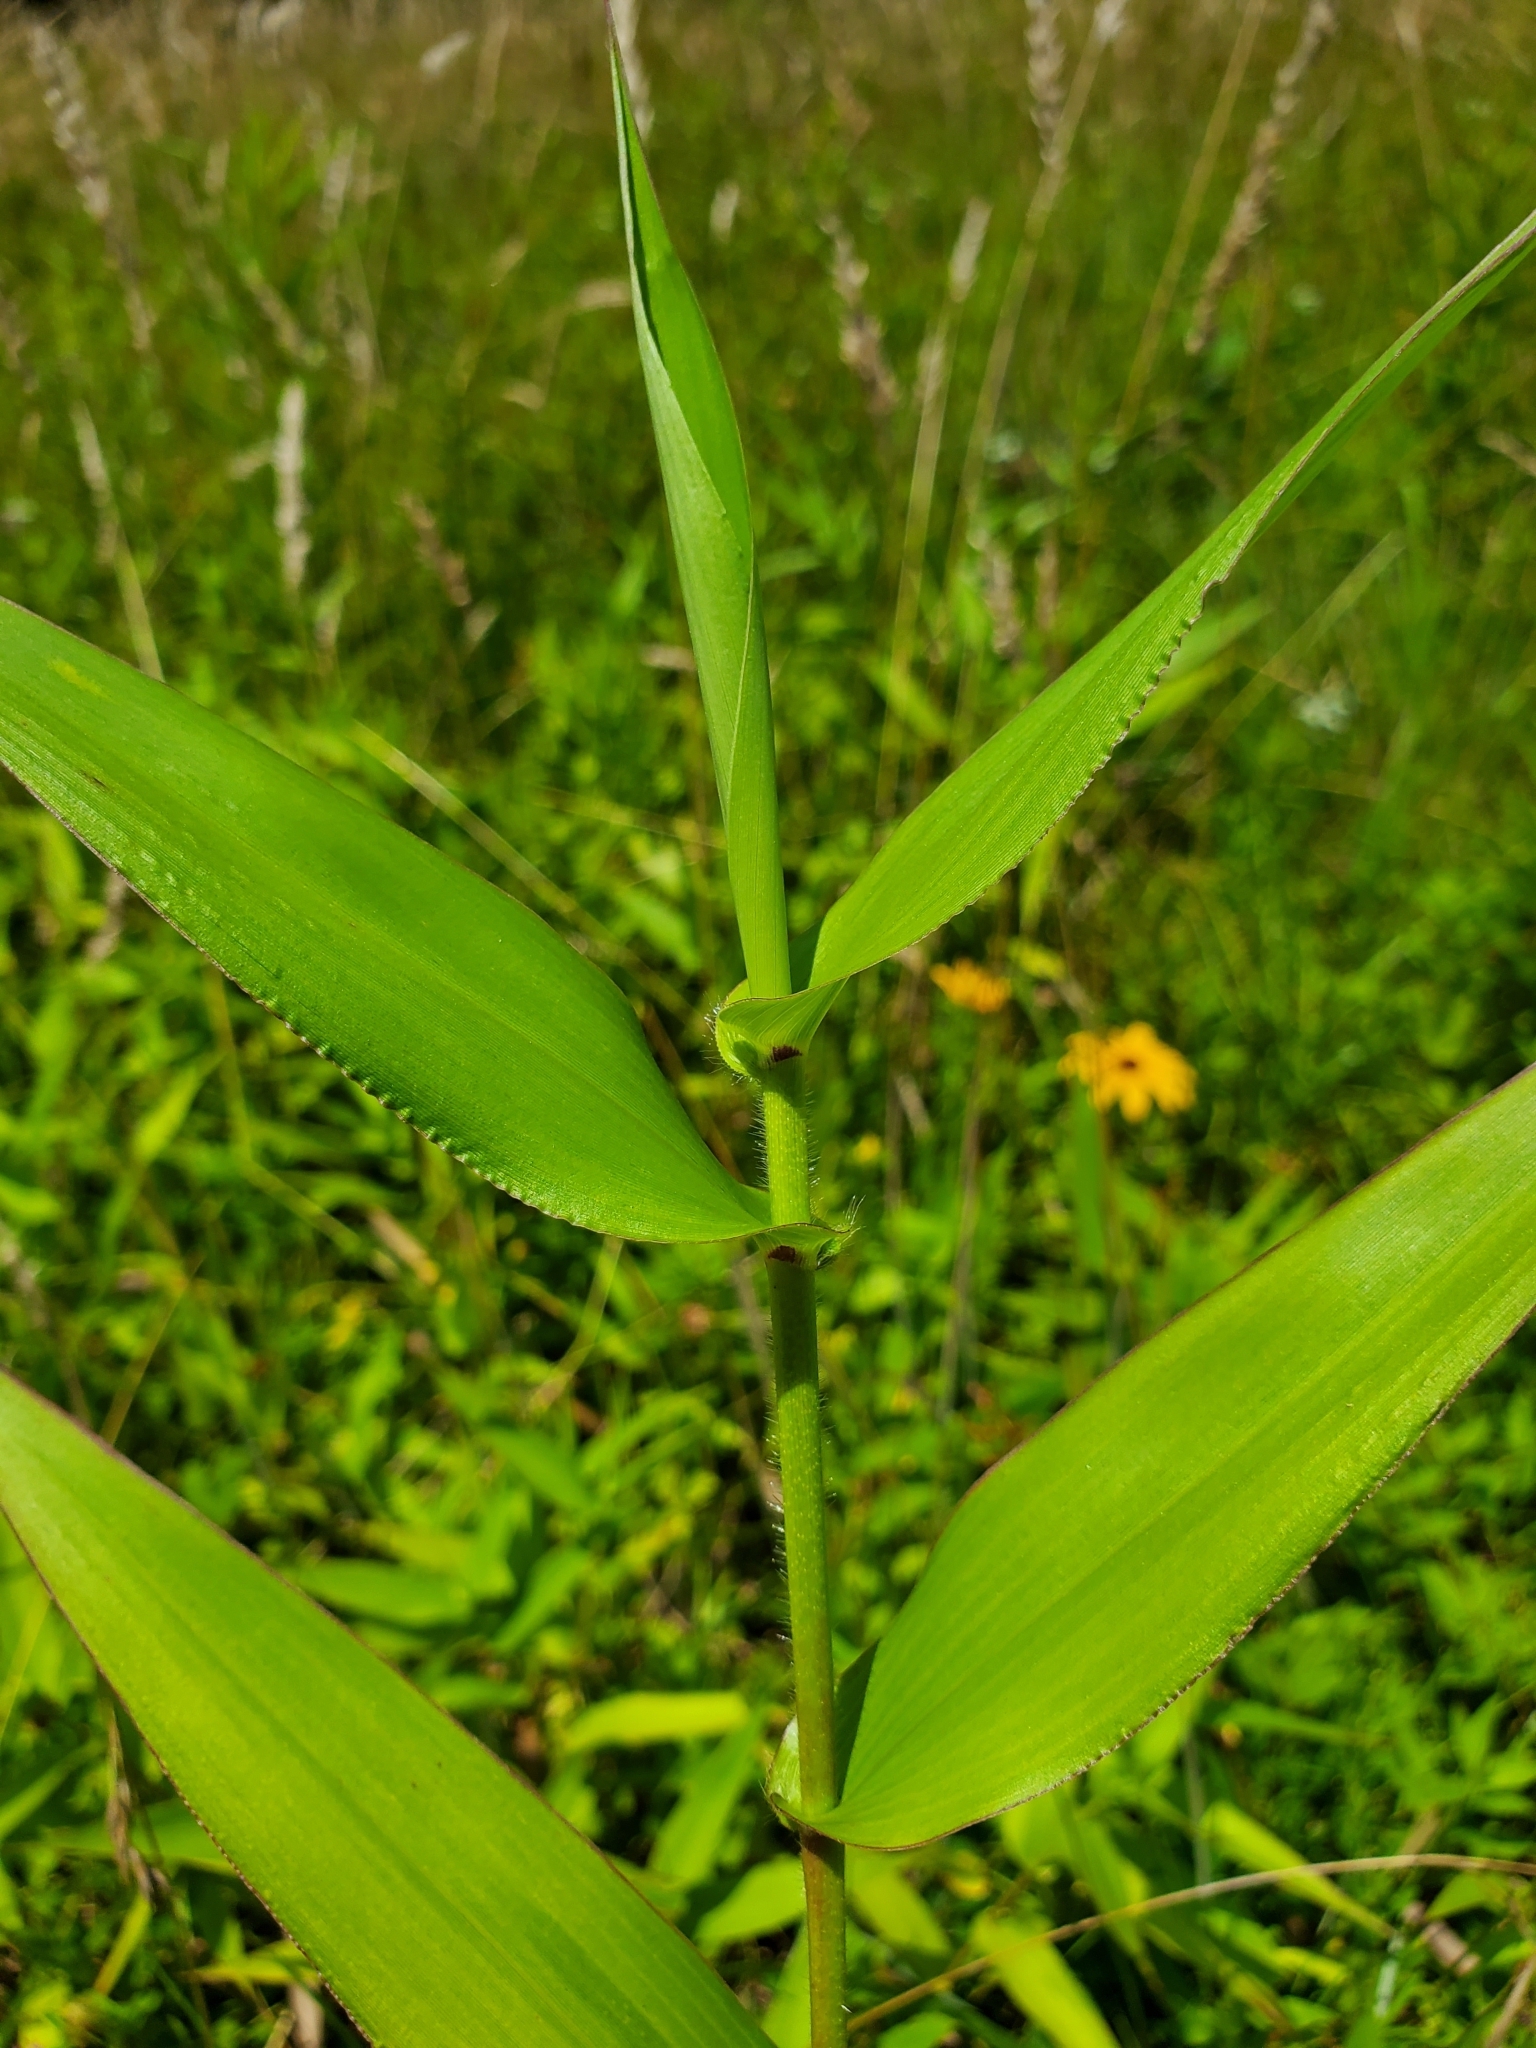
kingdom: Plantae
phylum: Tracheophyta
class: Liliopsida
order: Poales
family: Poaceae
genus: Dichanthelium
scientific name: Dichanthelium clandestinum
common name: Deer-tongue grass
